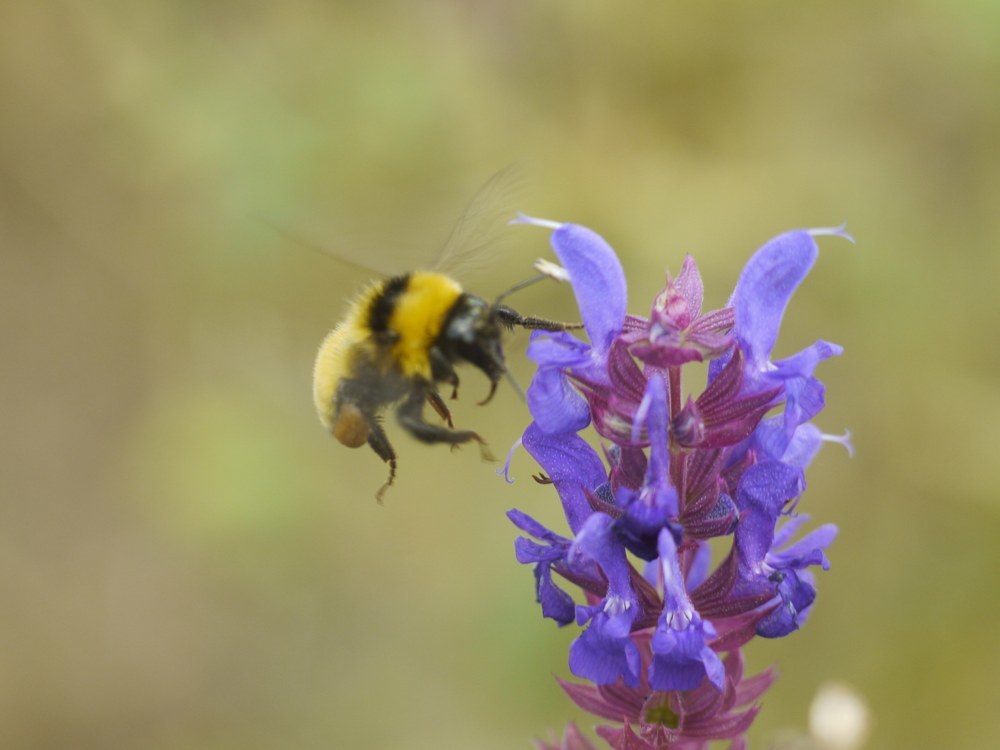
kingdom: Animalia
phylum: Arthropoda
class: Insecta
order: Hymenoptera
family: Apidae
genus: Bombus
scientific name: Bombus
